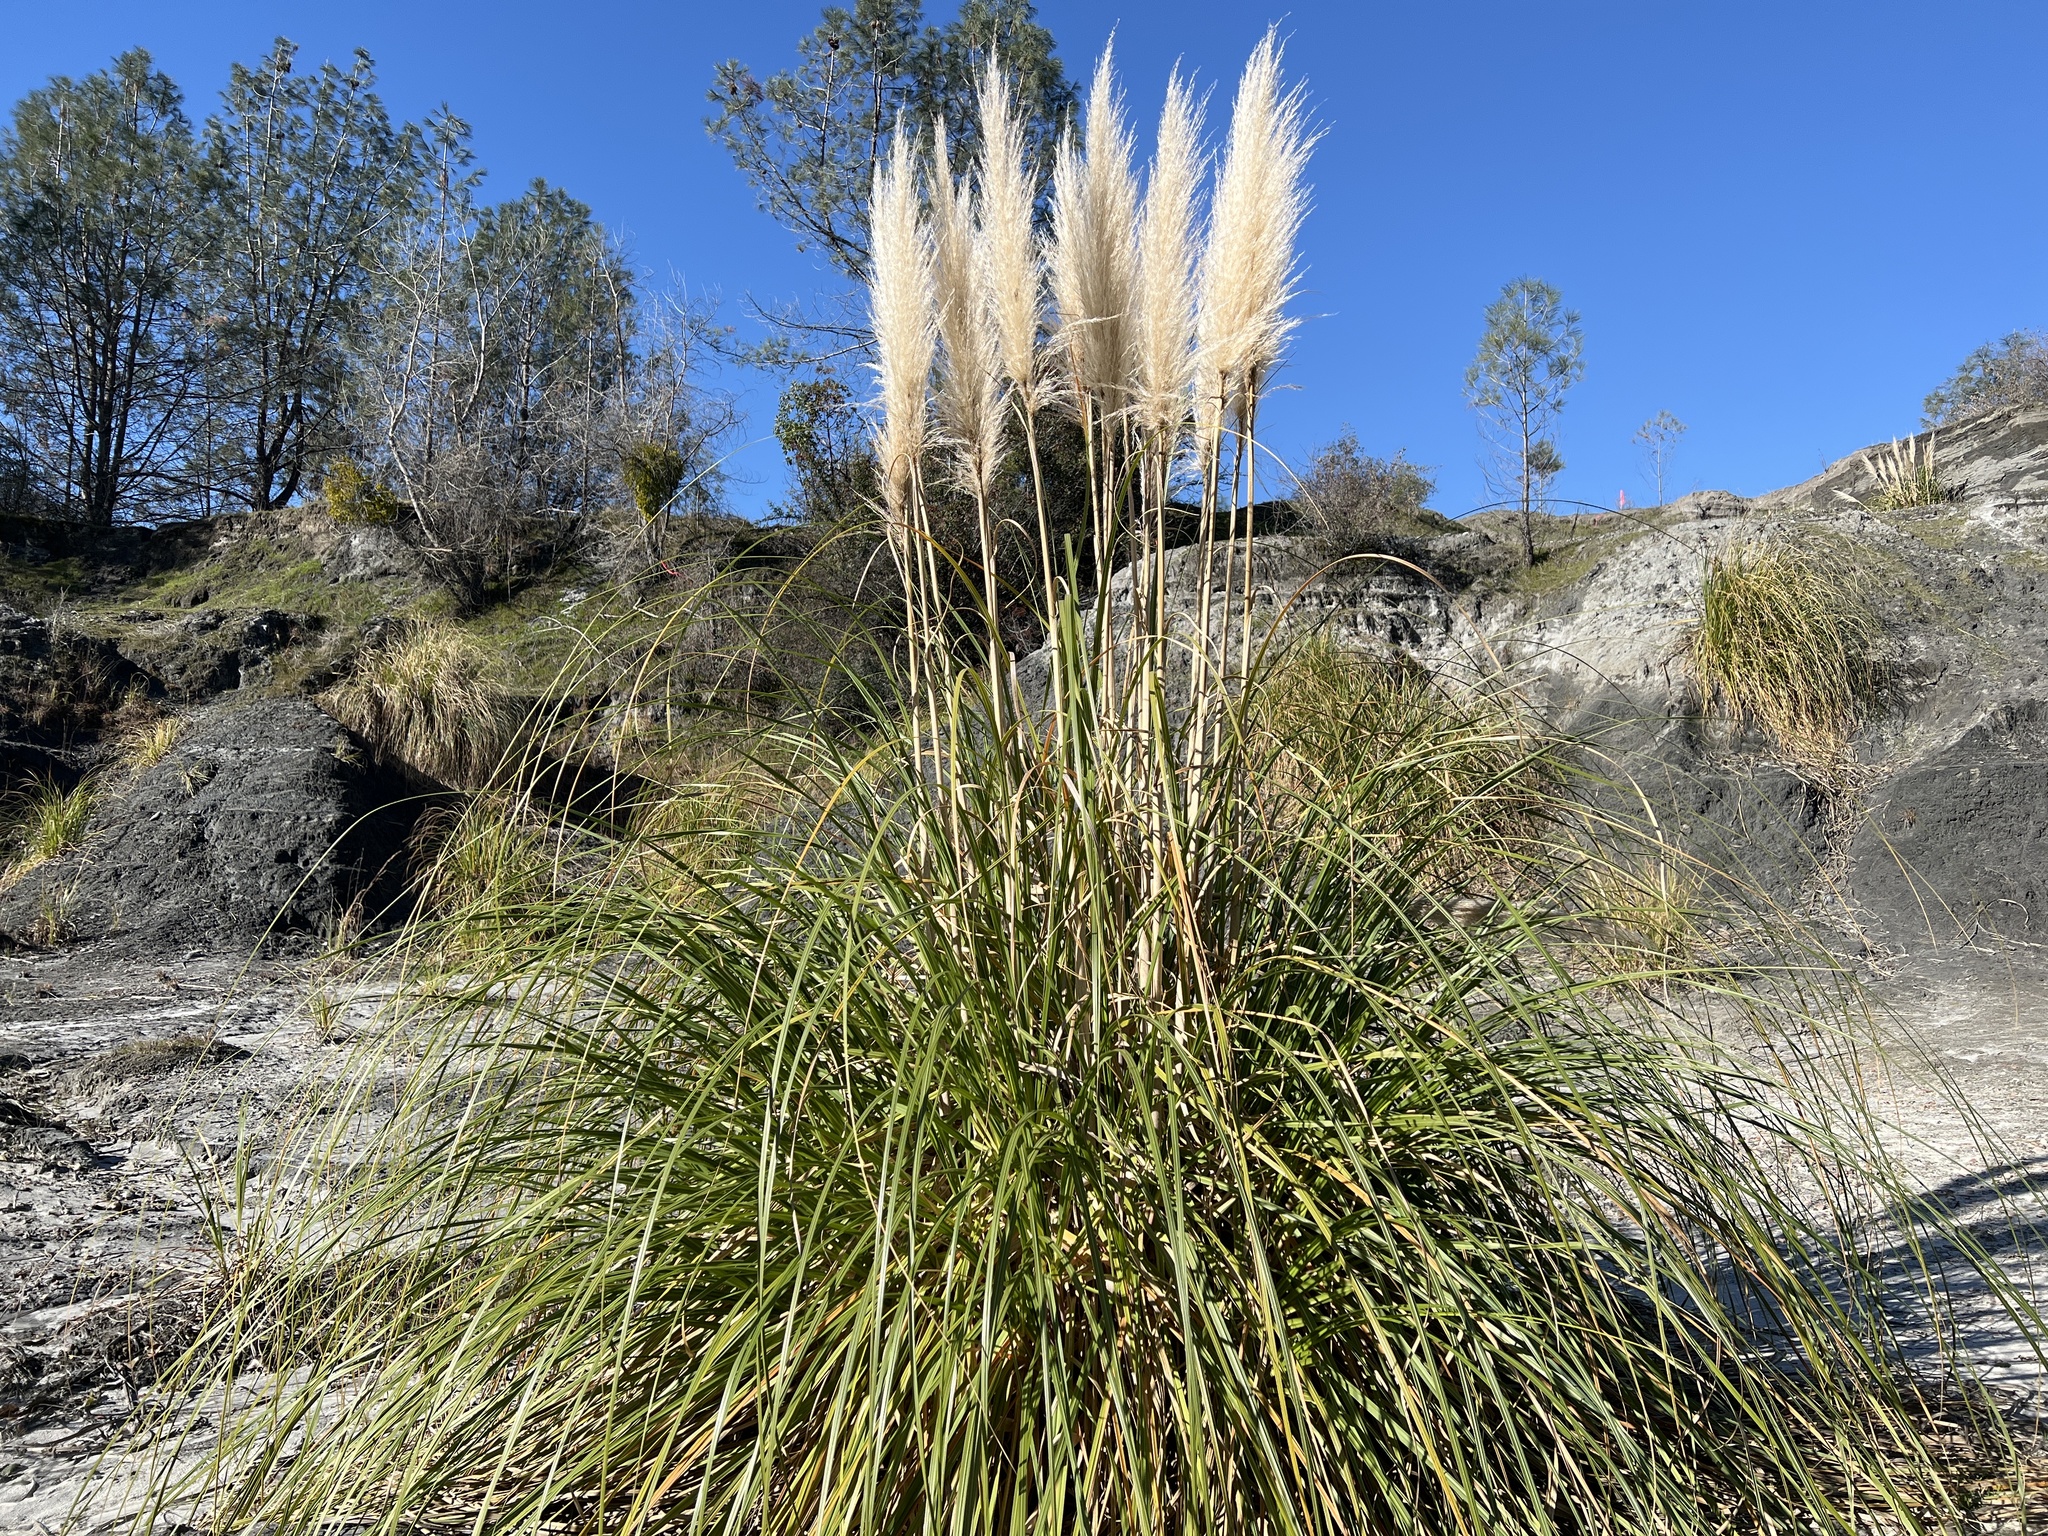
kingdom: Plantae
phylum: Tracheophyta
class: Liliopsida
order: Poales
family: Poaceae
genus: Cortaderia
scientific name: Cortaderia selloana
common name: Uruguayan pampas grass
